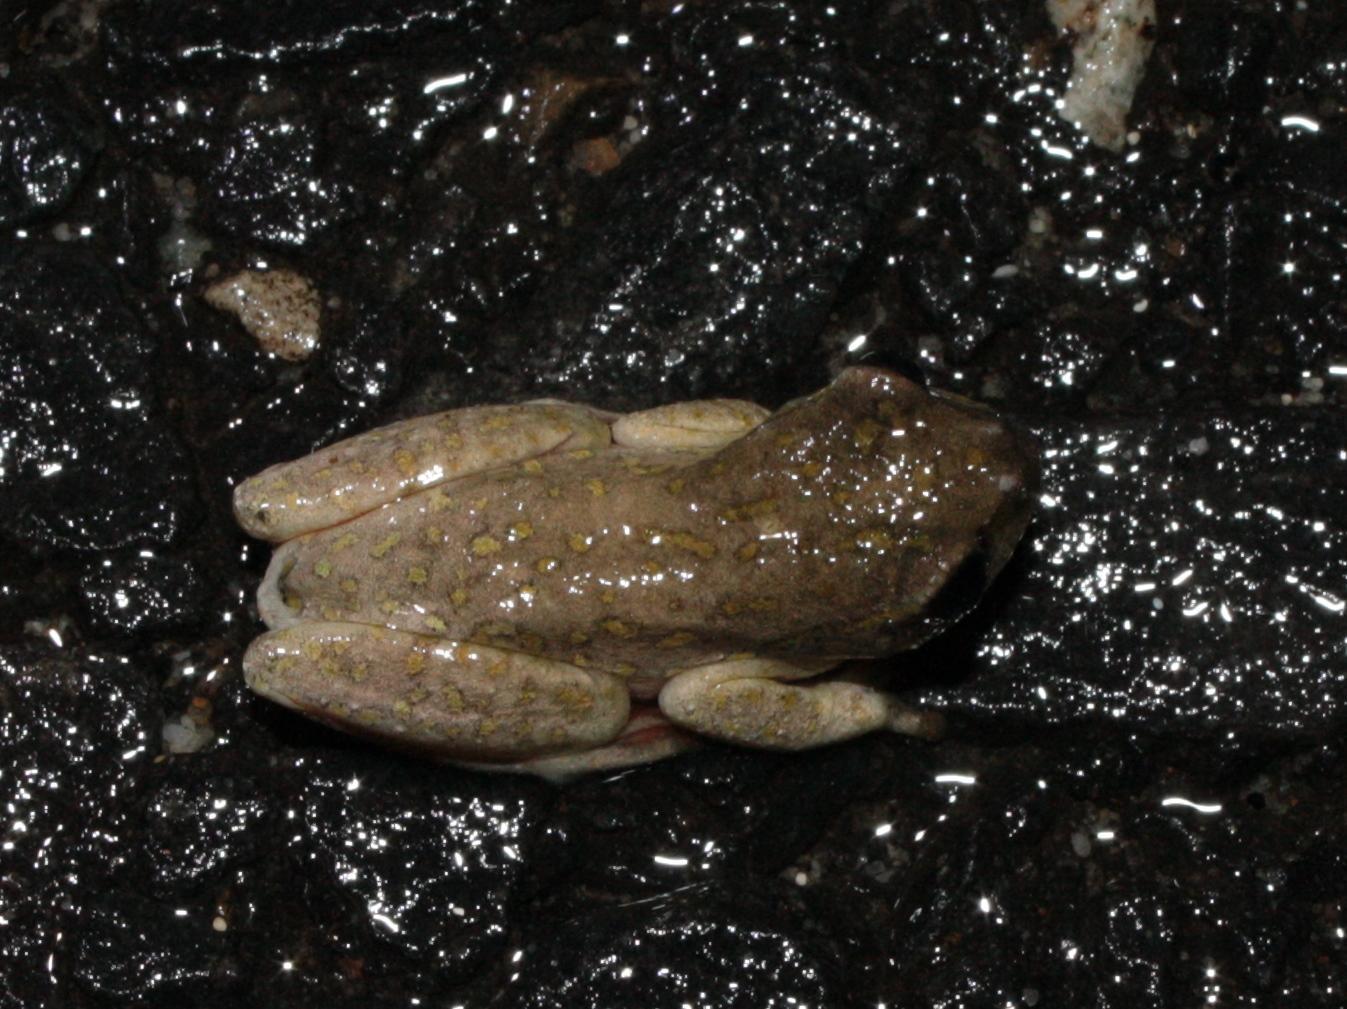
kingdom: Animalia
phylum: Chordata
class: Amphibia
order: Anura
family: Hyperoliidae
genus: Hyperolius
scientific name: Hyperolius marmoratus
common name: Painted reed frog
